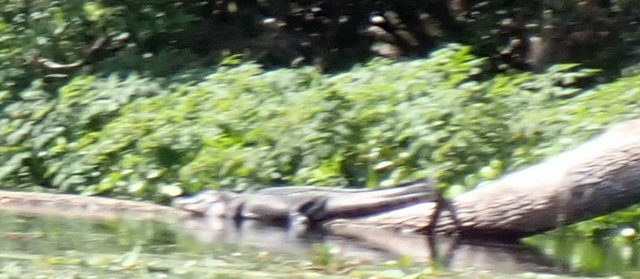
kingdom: Animalia
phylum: Chordata
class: Crocodylia
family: Alligatoridae
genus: Alligator
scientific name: Alligator mississippiensis
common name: American alligator
